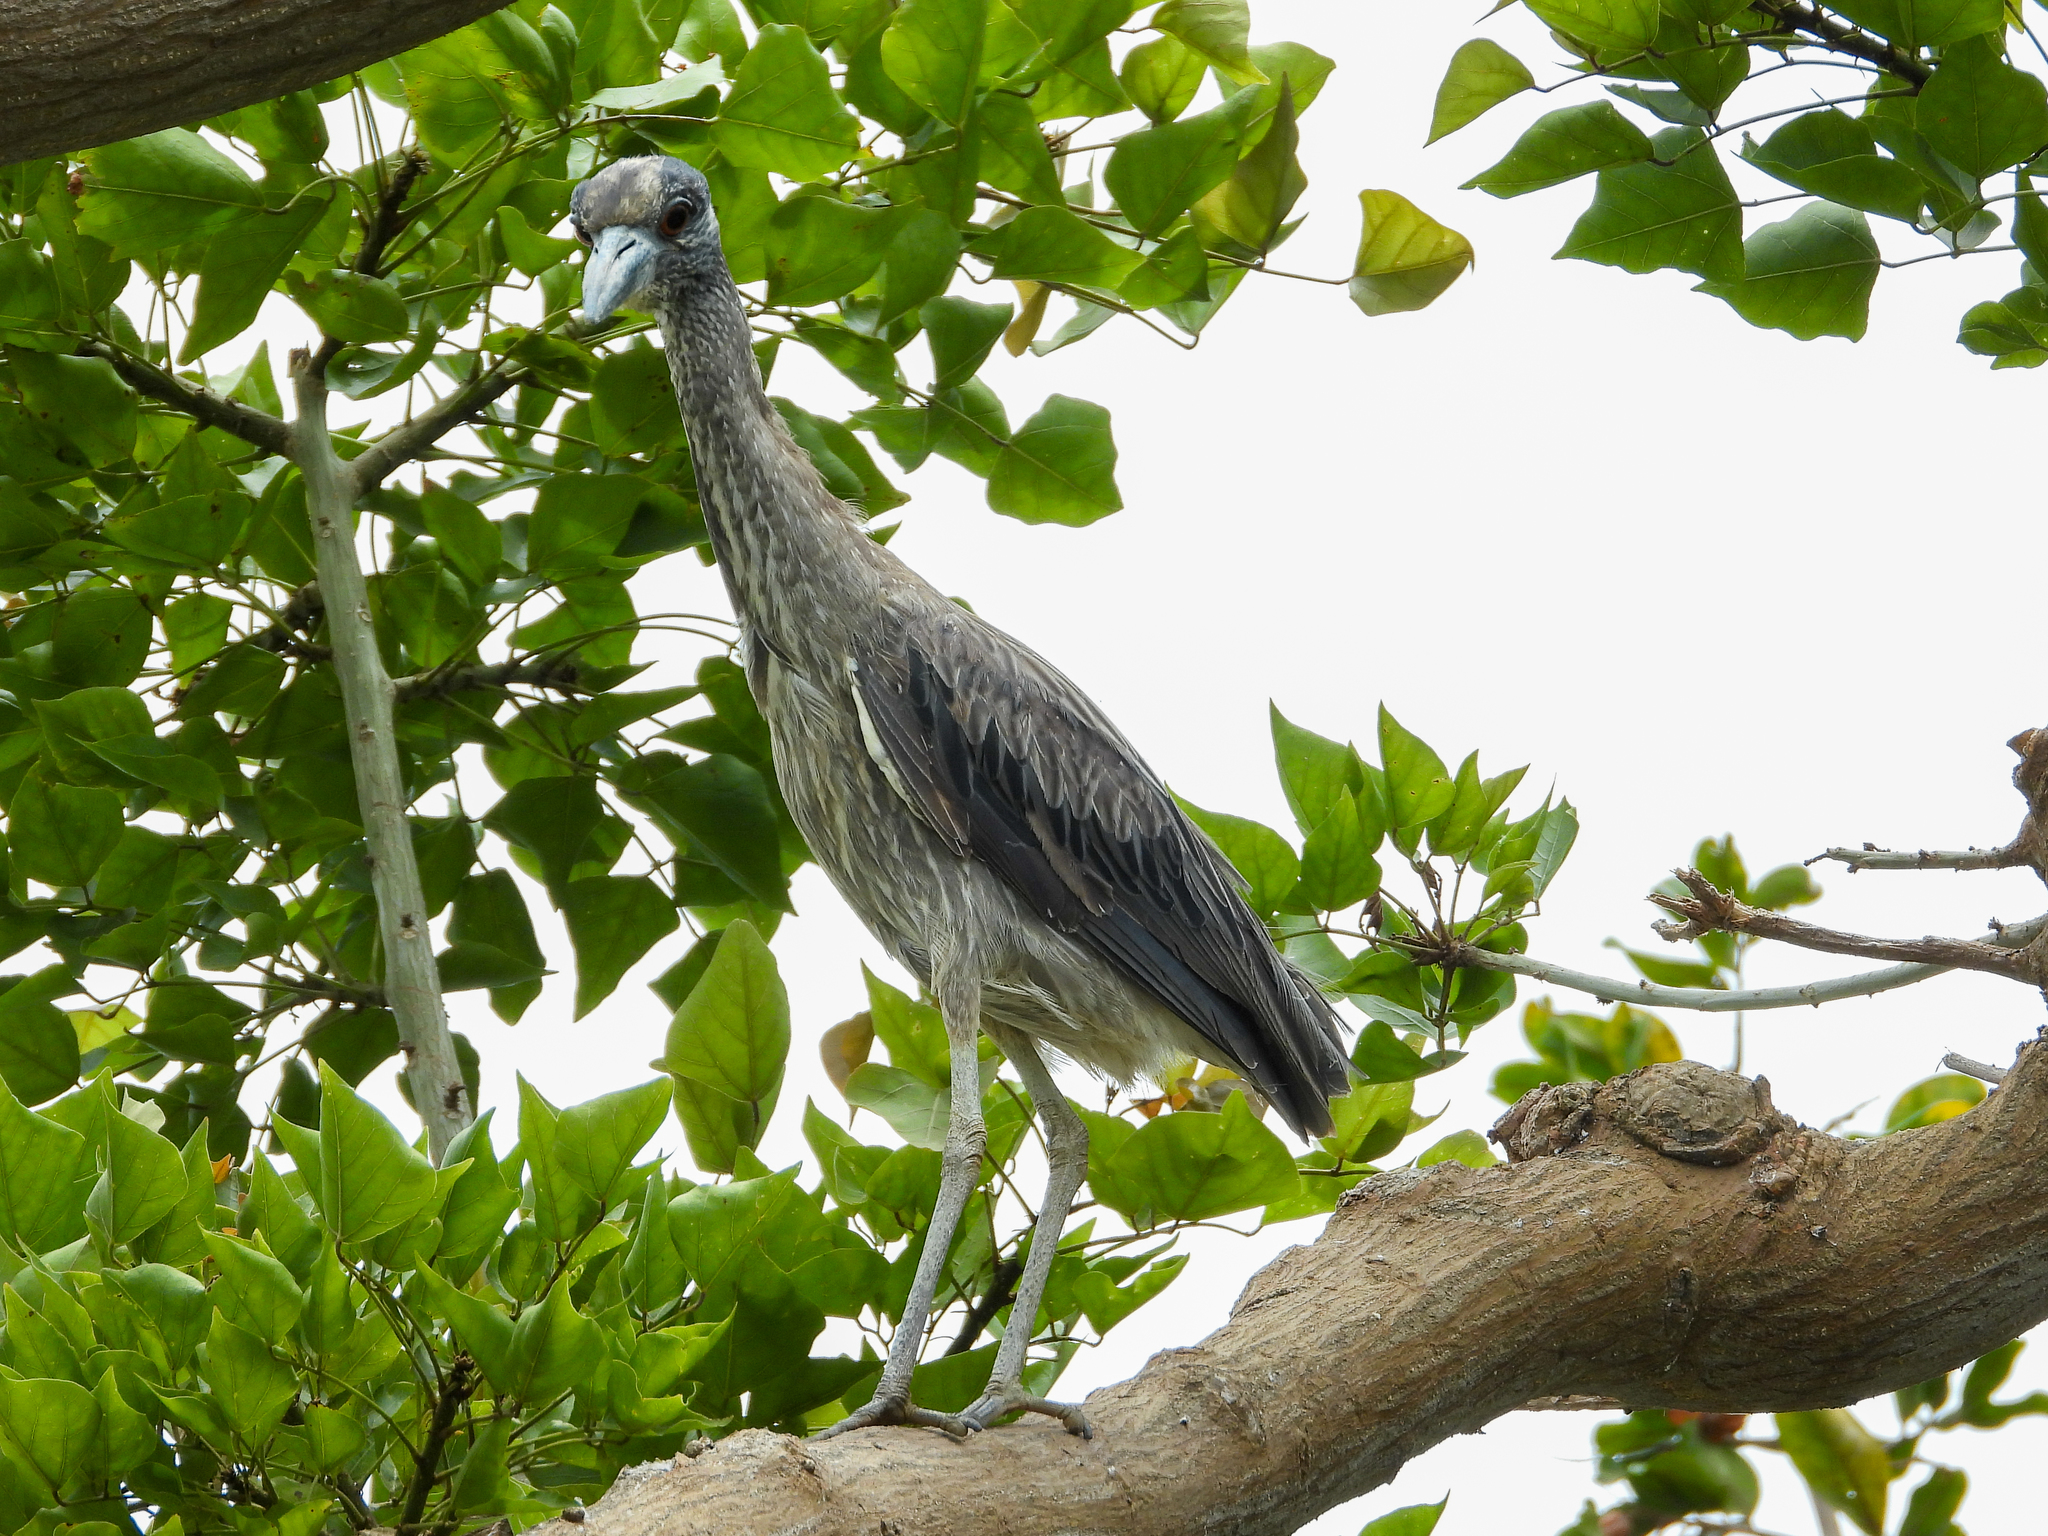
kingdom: Animalia
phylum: Chordata
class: Aves
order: Pelecaniformes
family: Ardeidae
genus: Nyctanassa
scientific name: Nyctanassa violacea
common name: Yellow-crowned night heron
